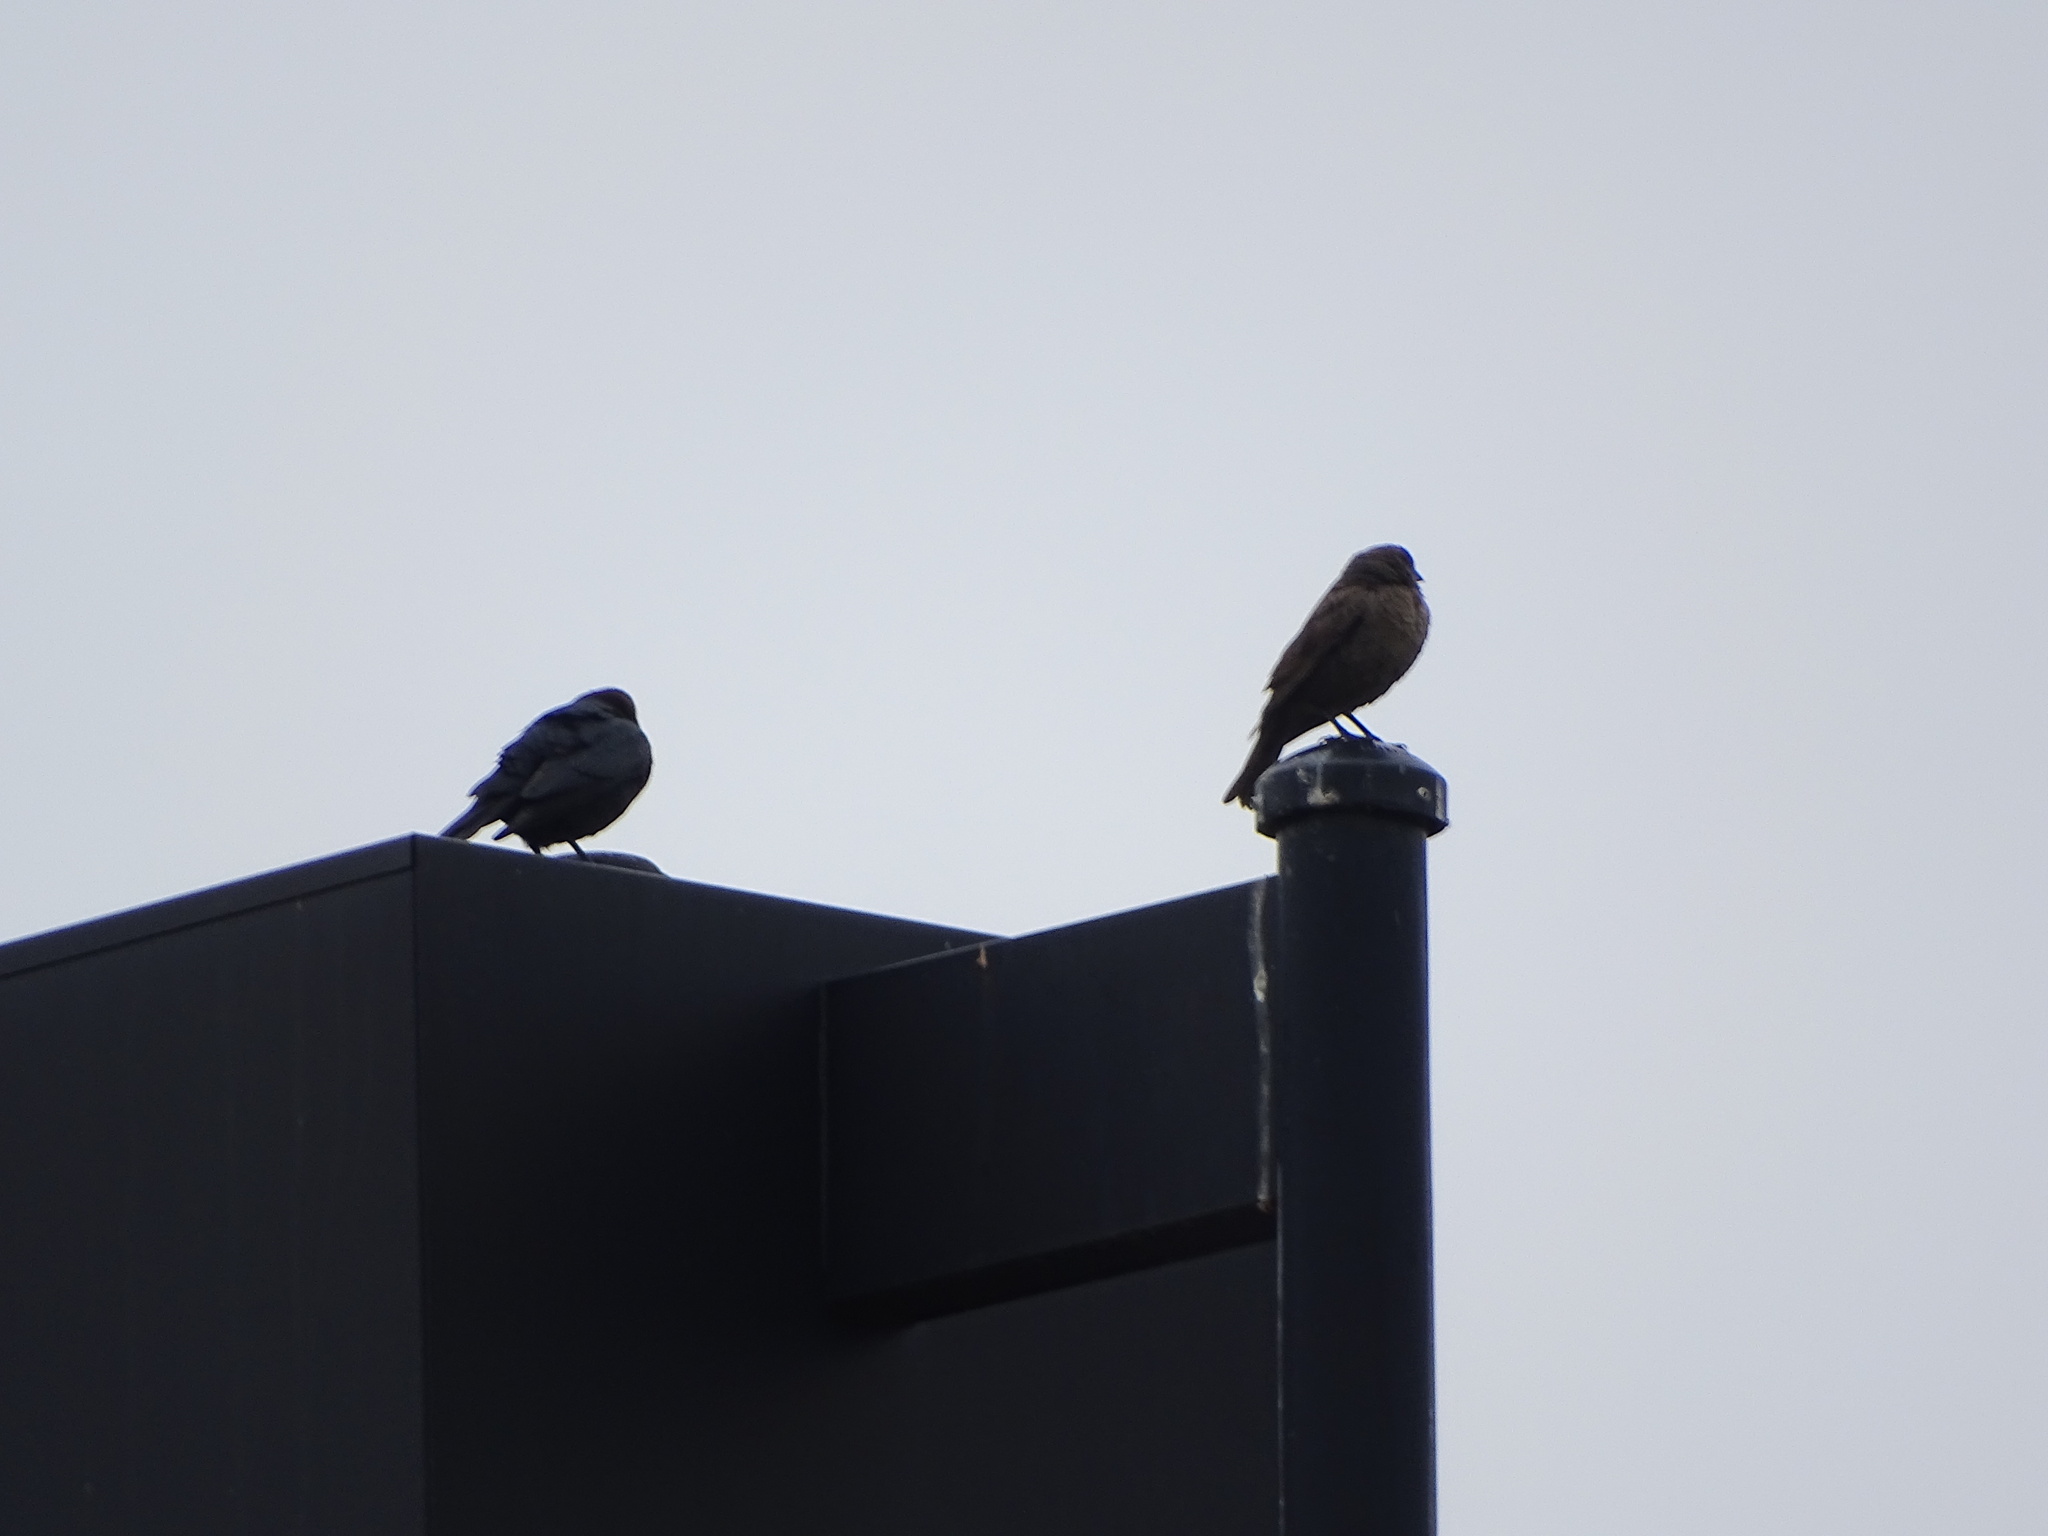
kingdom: Animalia
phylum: Chordata
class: Aves
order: Passeriformes
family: Icteridae
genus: Molothrus
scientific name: Molothrus ater
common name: Brown-headed cowbird
